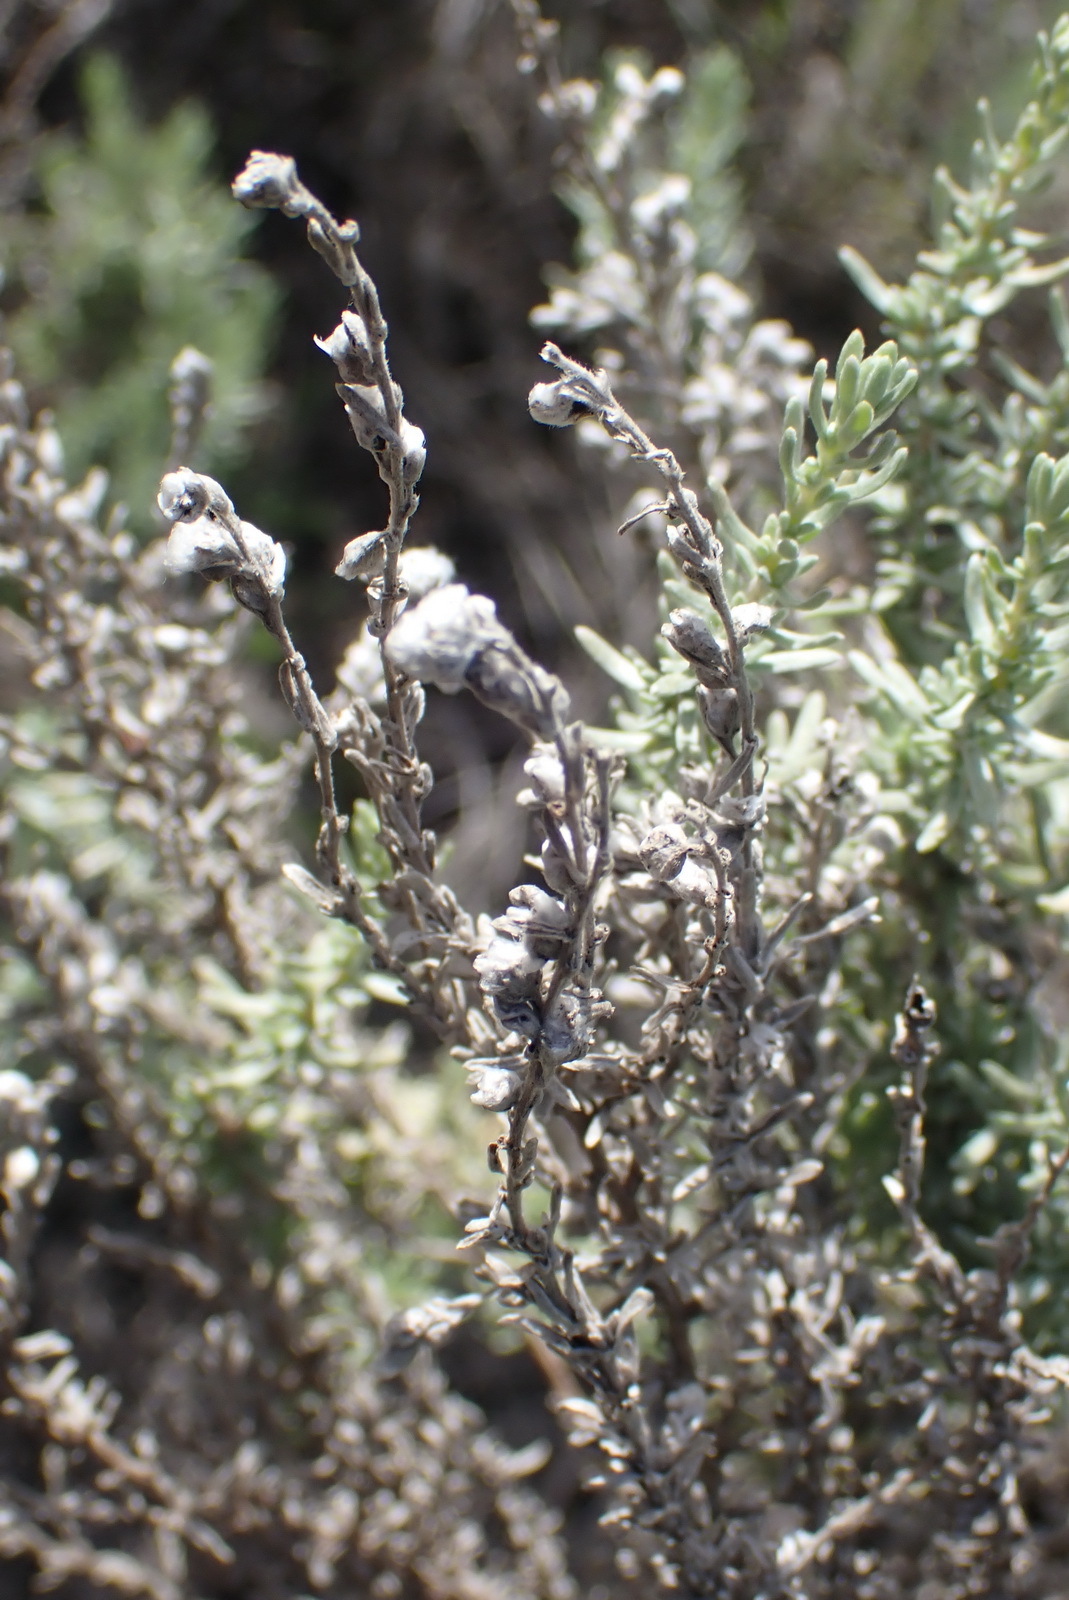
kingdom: Plantae
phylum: Tracheophyta
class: Magnoliopsida
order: Asterales
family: Asteraceae
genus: Eriocephalus
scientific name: Eriocephalus racemosus
